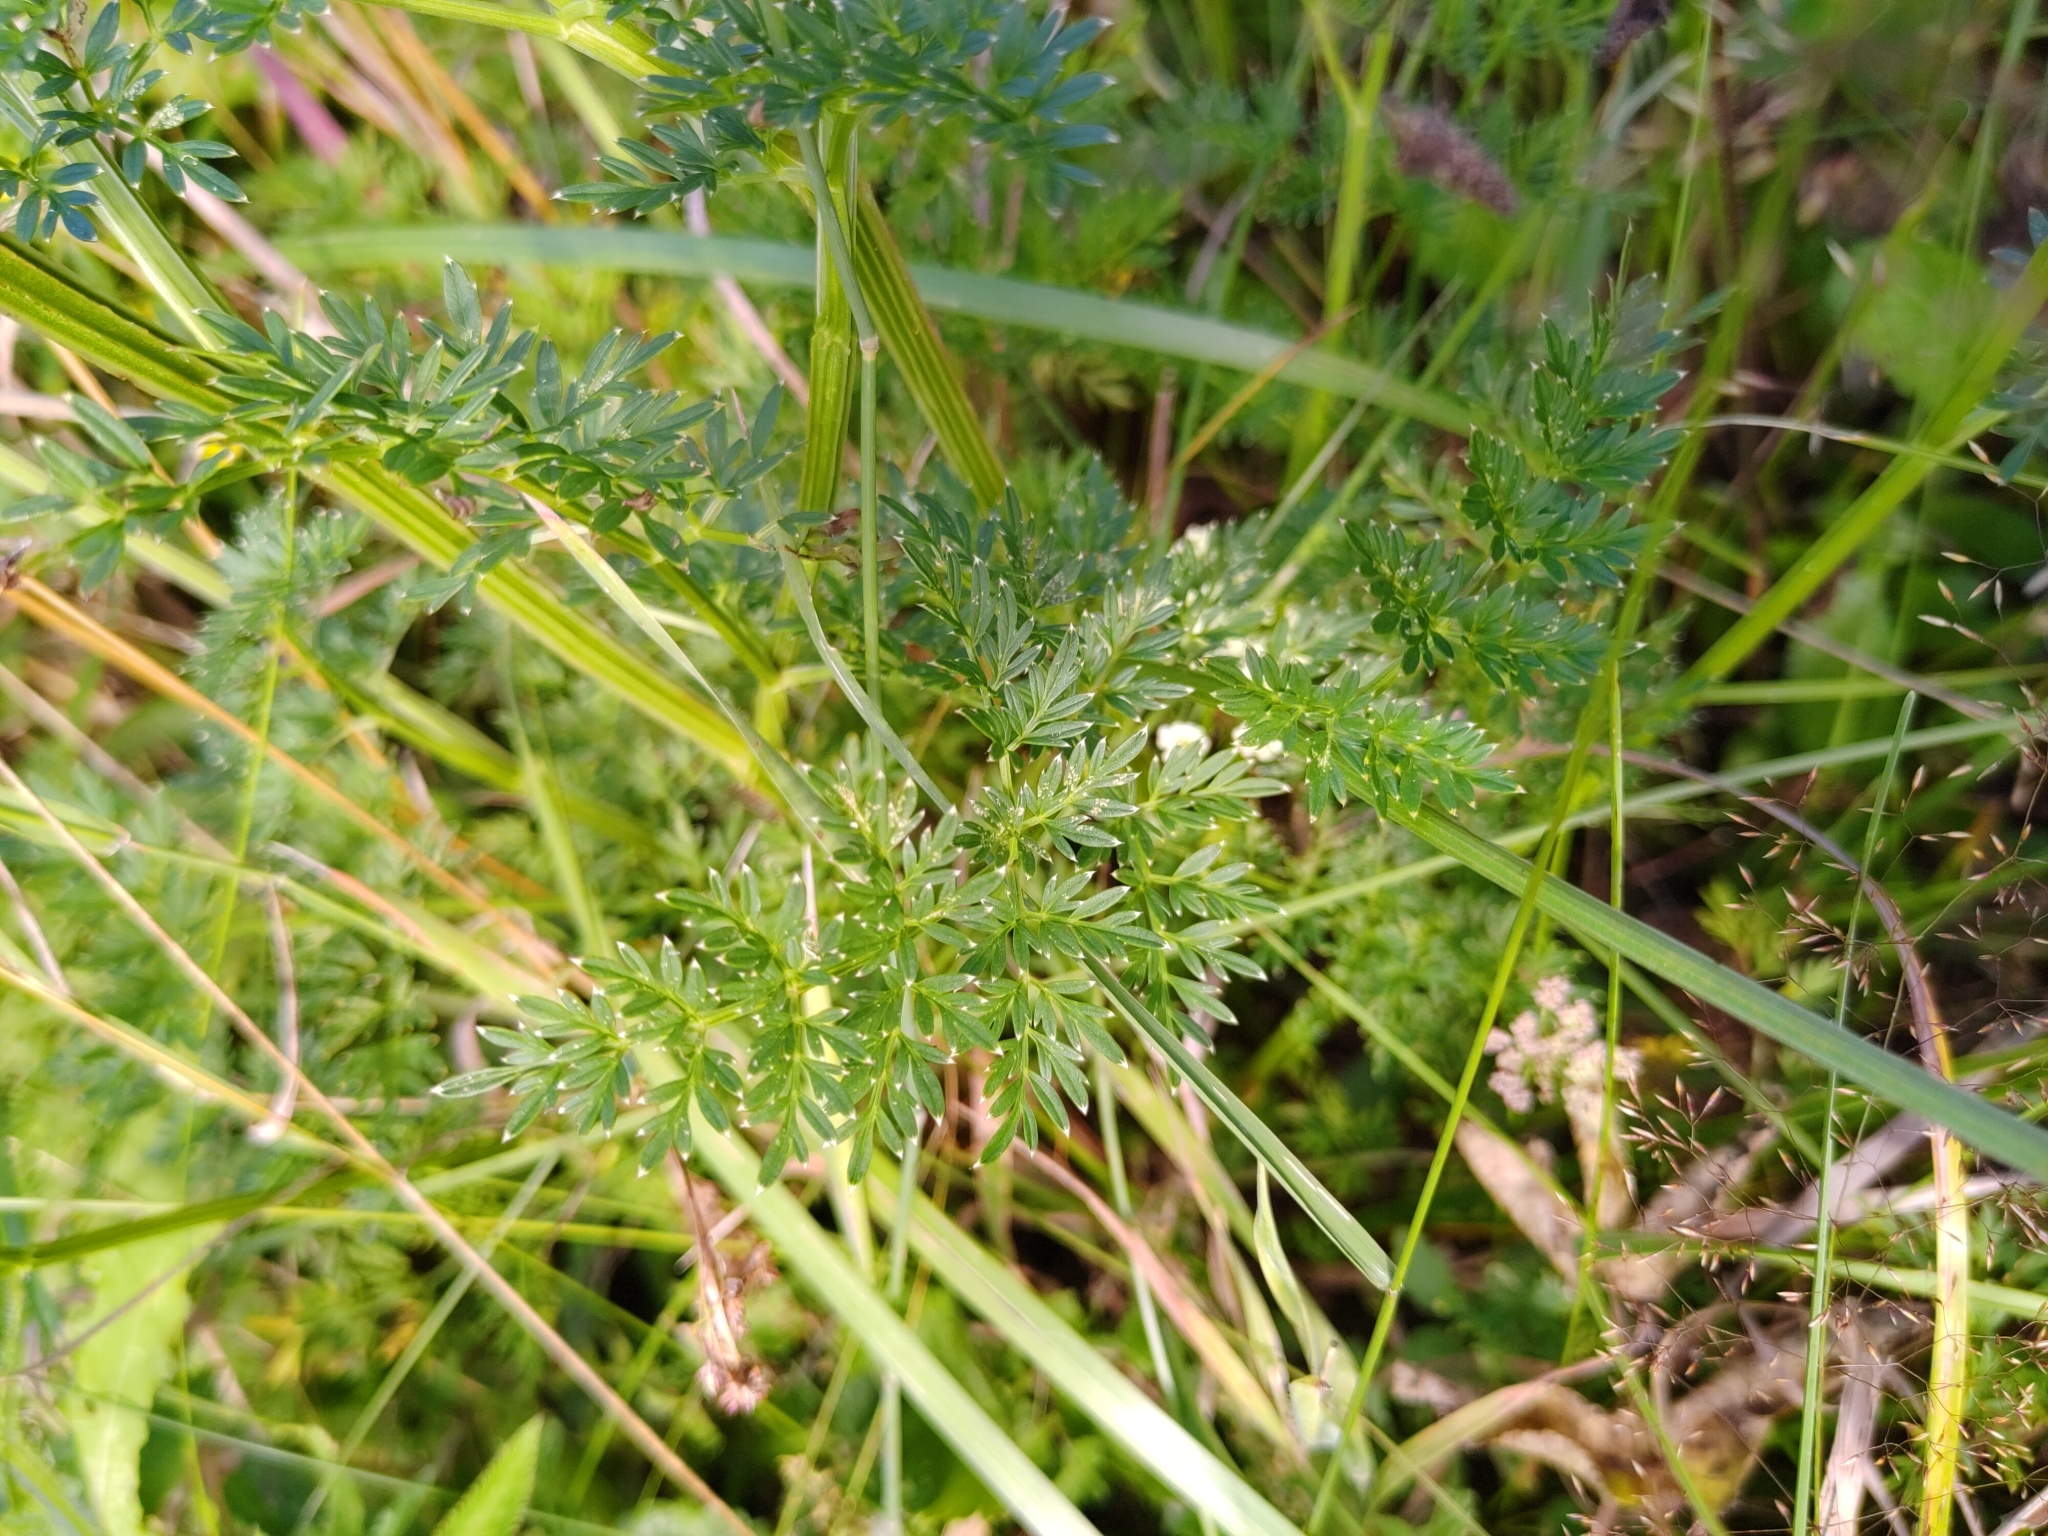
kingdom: Plantae
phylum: Tracheophyta
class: Magnoliopsida
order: Apiales
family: Apiaceae
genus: Selinum
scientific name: Selinum carvifolia
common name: Cambridge milk-parsley
